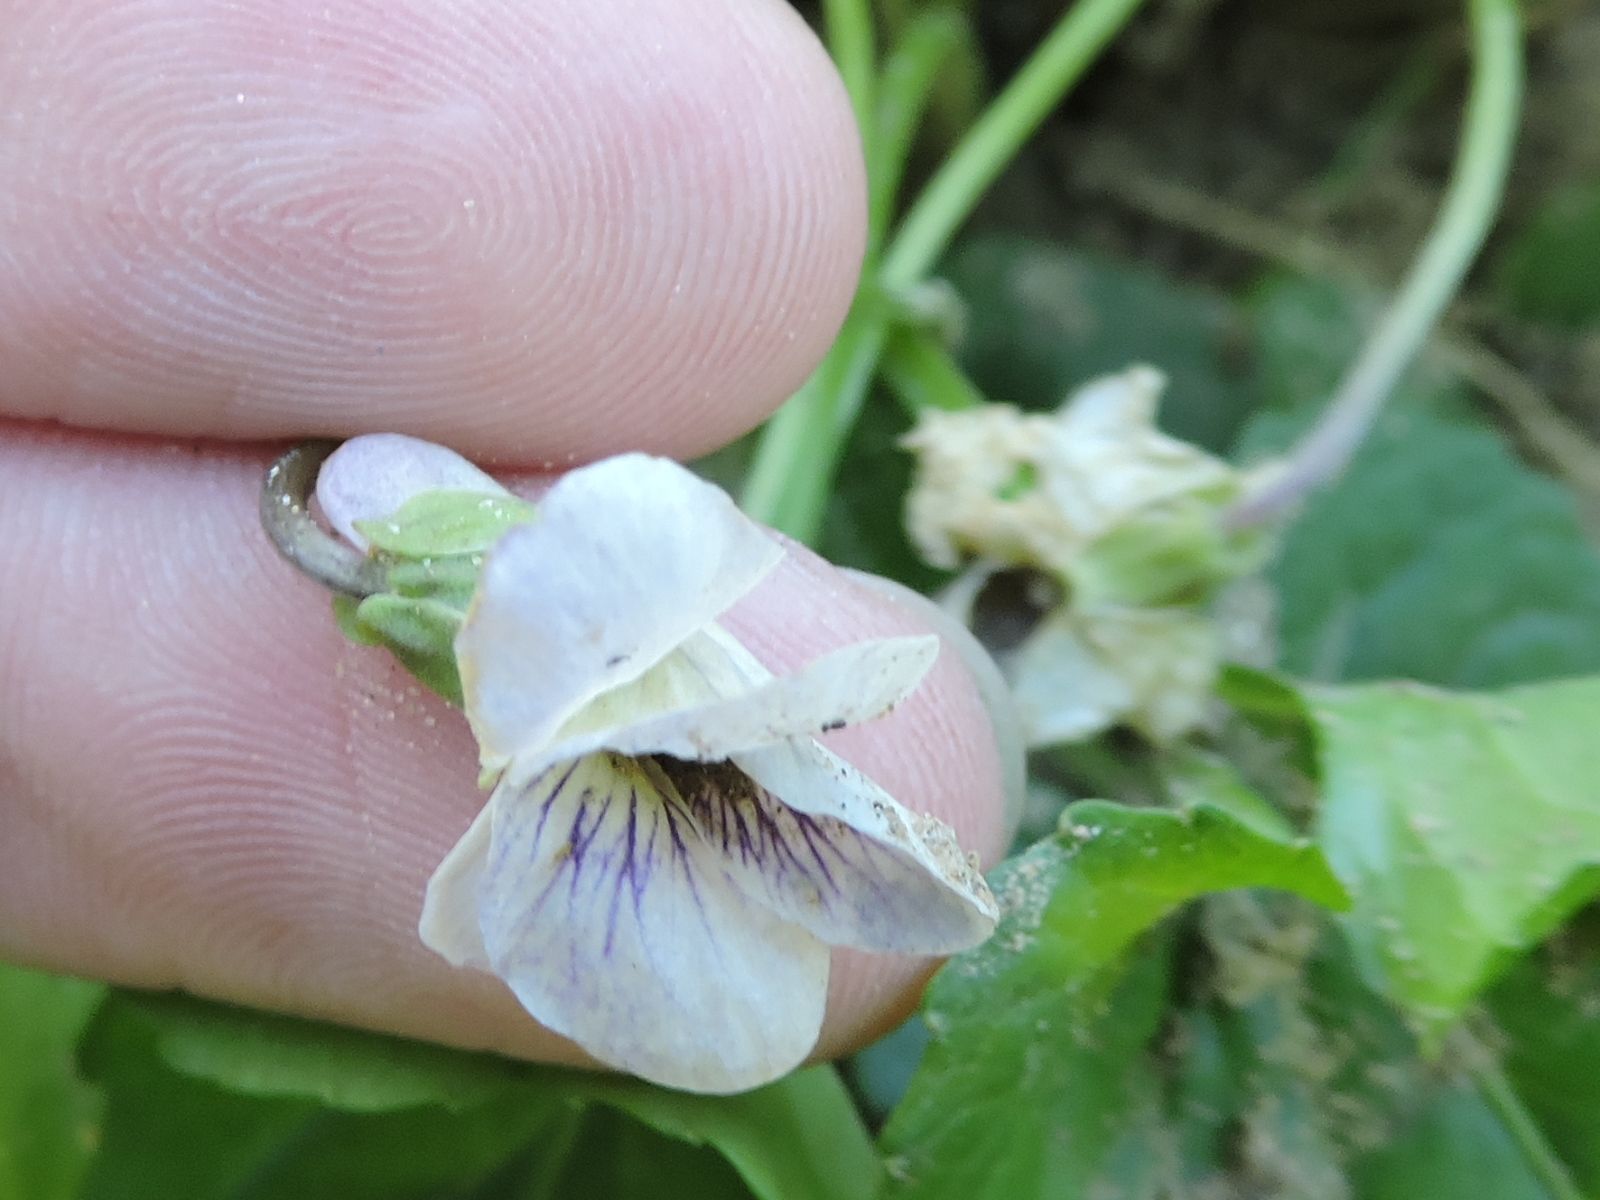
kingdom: Plantae
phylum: Tracheophyta
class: Magnoliopsida
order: Malpighiales
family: Violaceae
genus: Viola
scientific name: Viola sororia
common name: Dooryard violet
